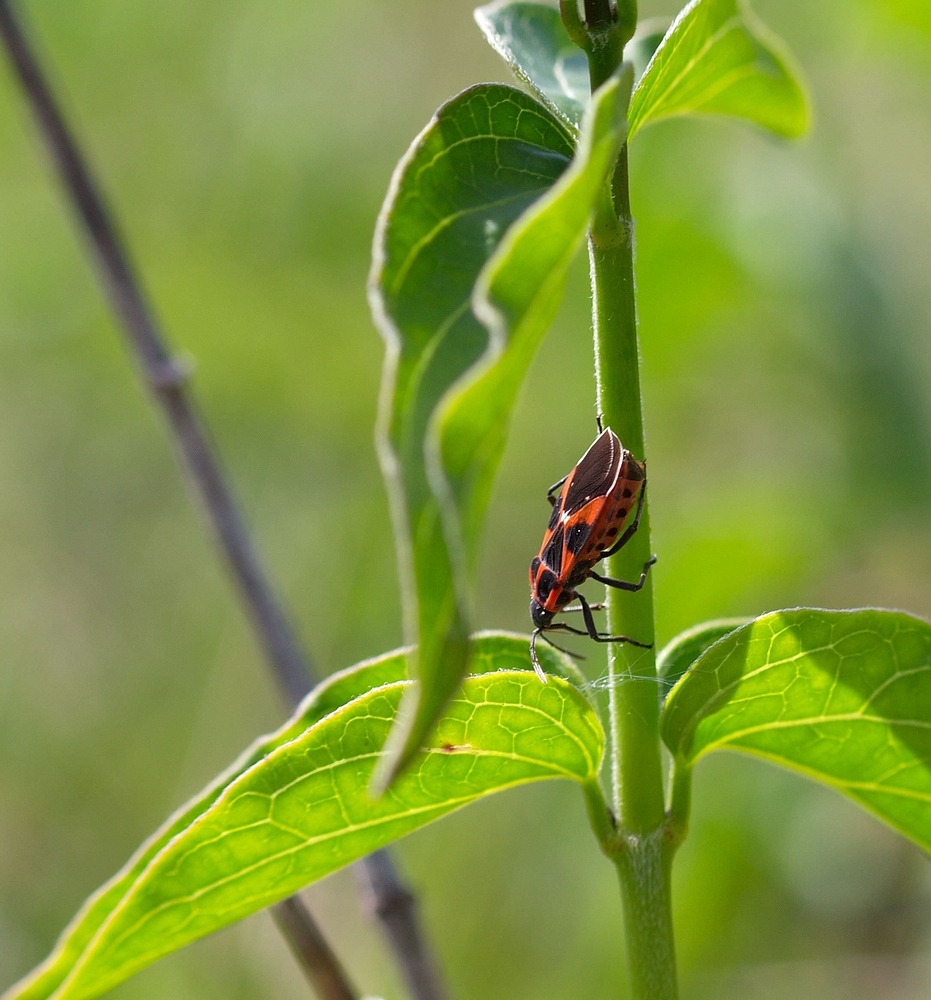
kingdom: Animalia
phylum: Arthropoda
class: Insecta
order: Hemiptera
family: Lygaeidae
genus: Tropidothorax
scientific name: Tropidothorax leucopterus
